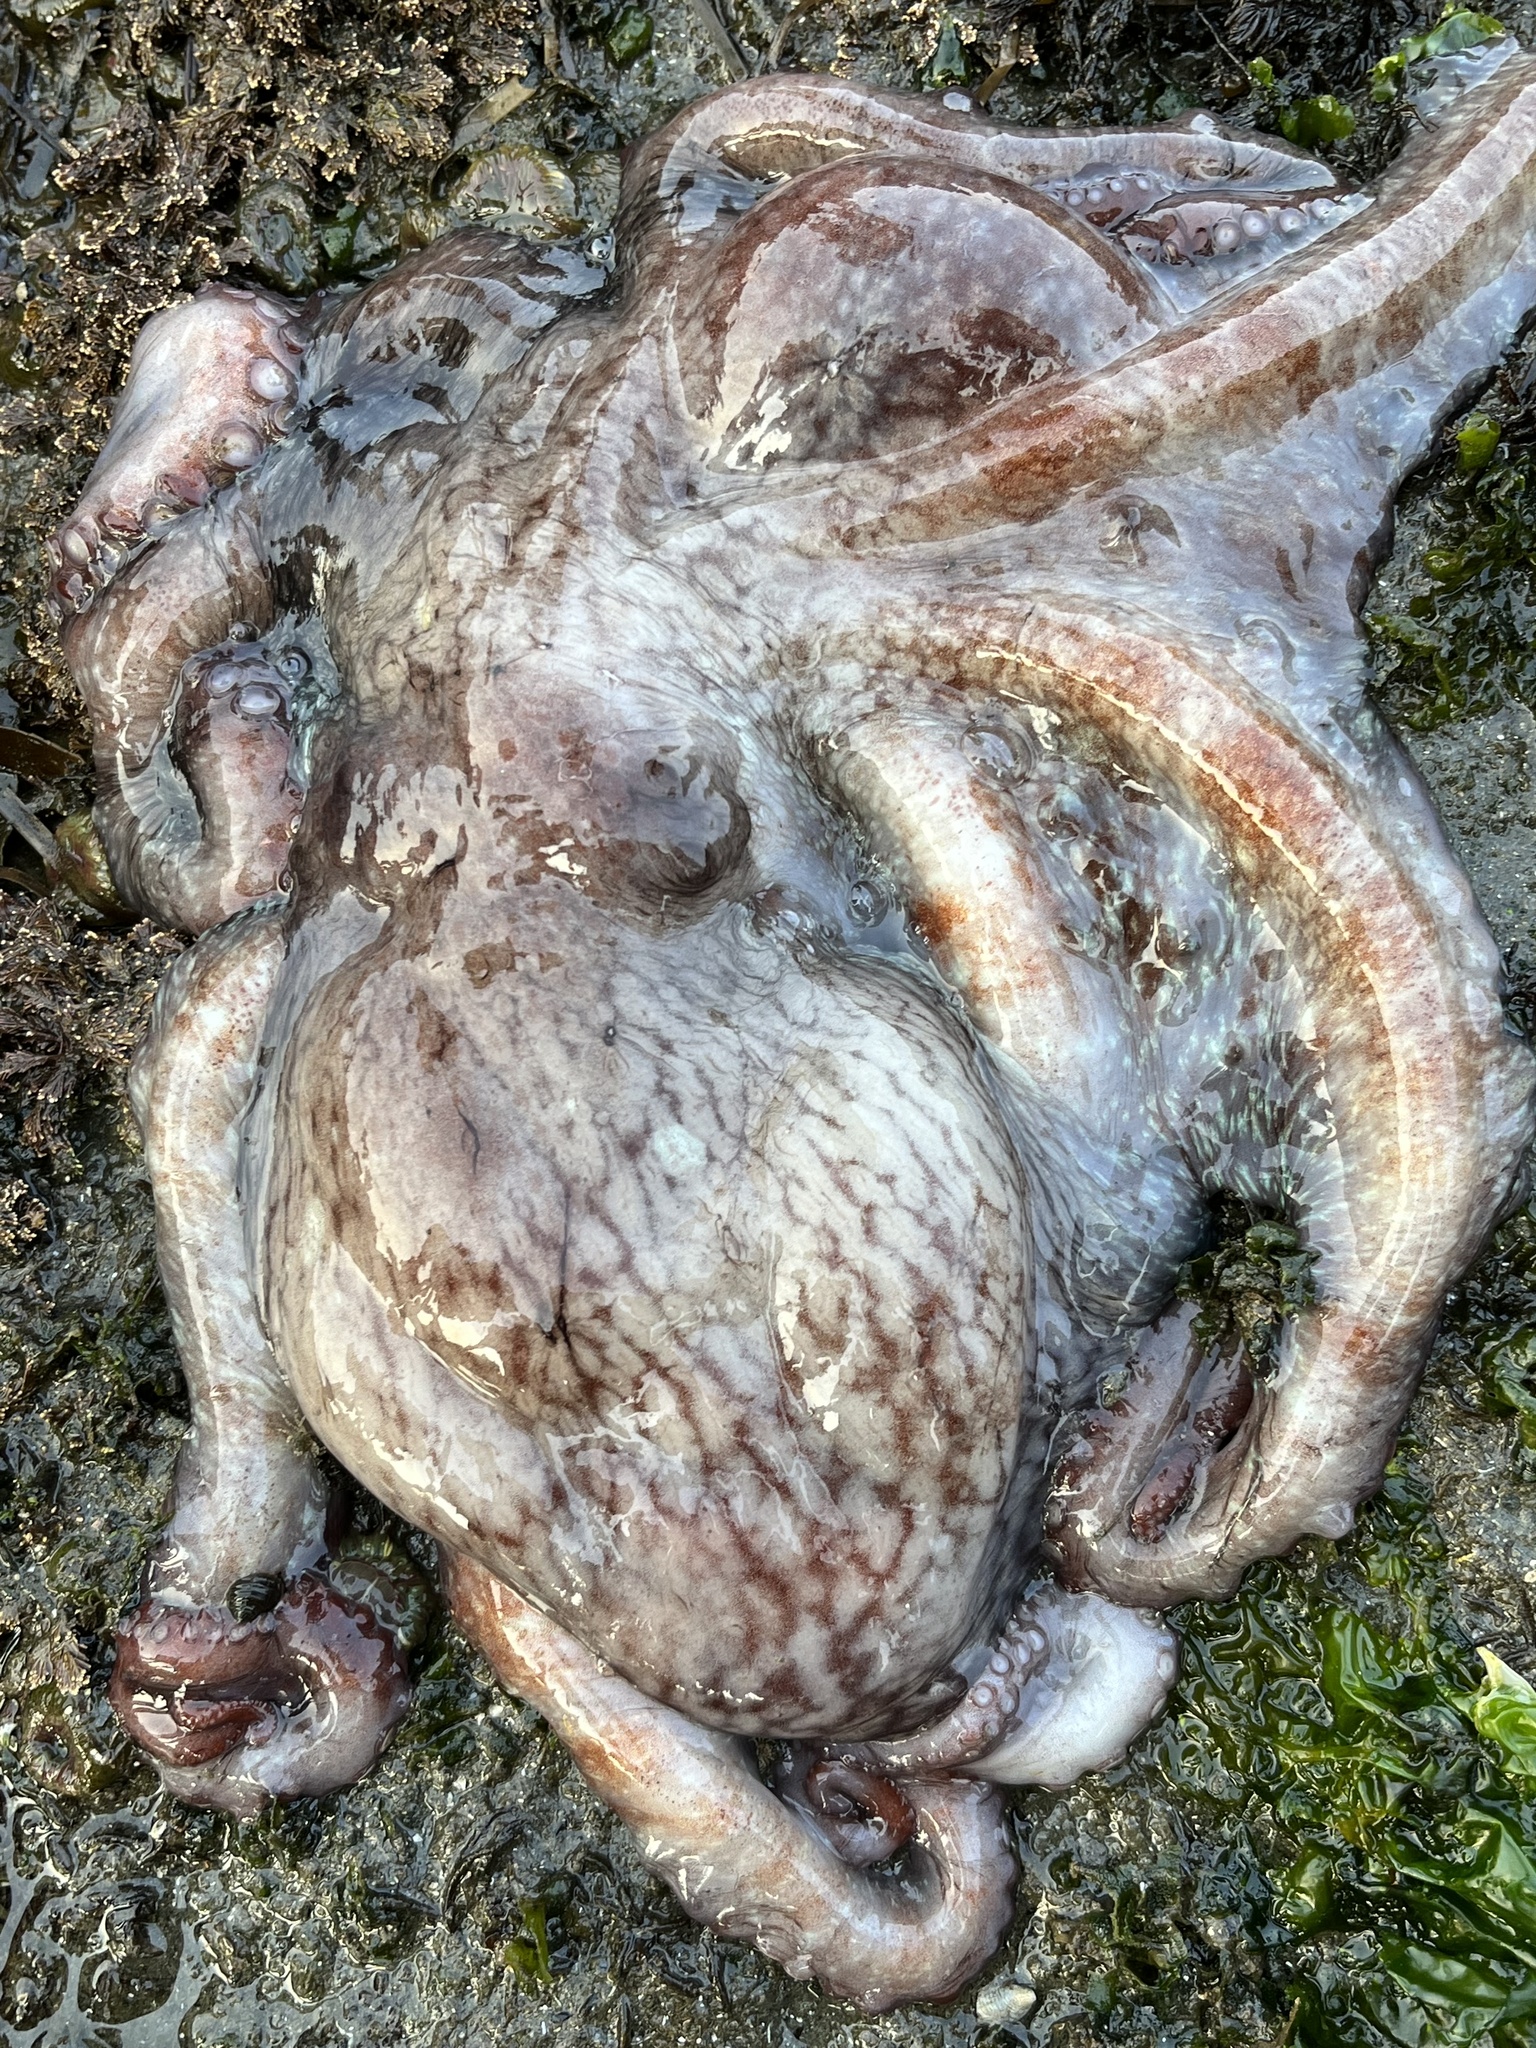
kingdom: Animalia
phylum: Mollusca
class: Cephalopoda
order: Octopoda
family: Enteroctopodidae
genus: Enteroctopus
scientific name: Enteroctopus dofleini
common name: Giant north pacific octopus
